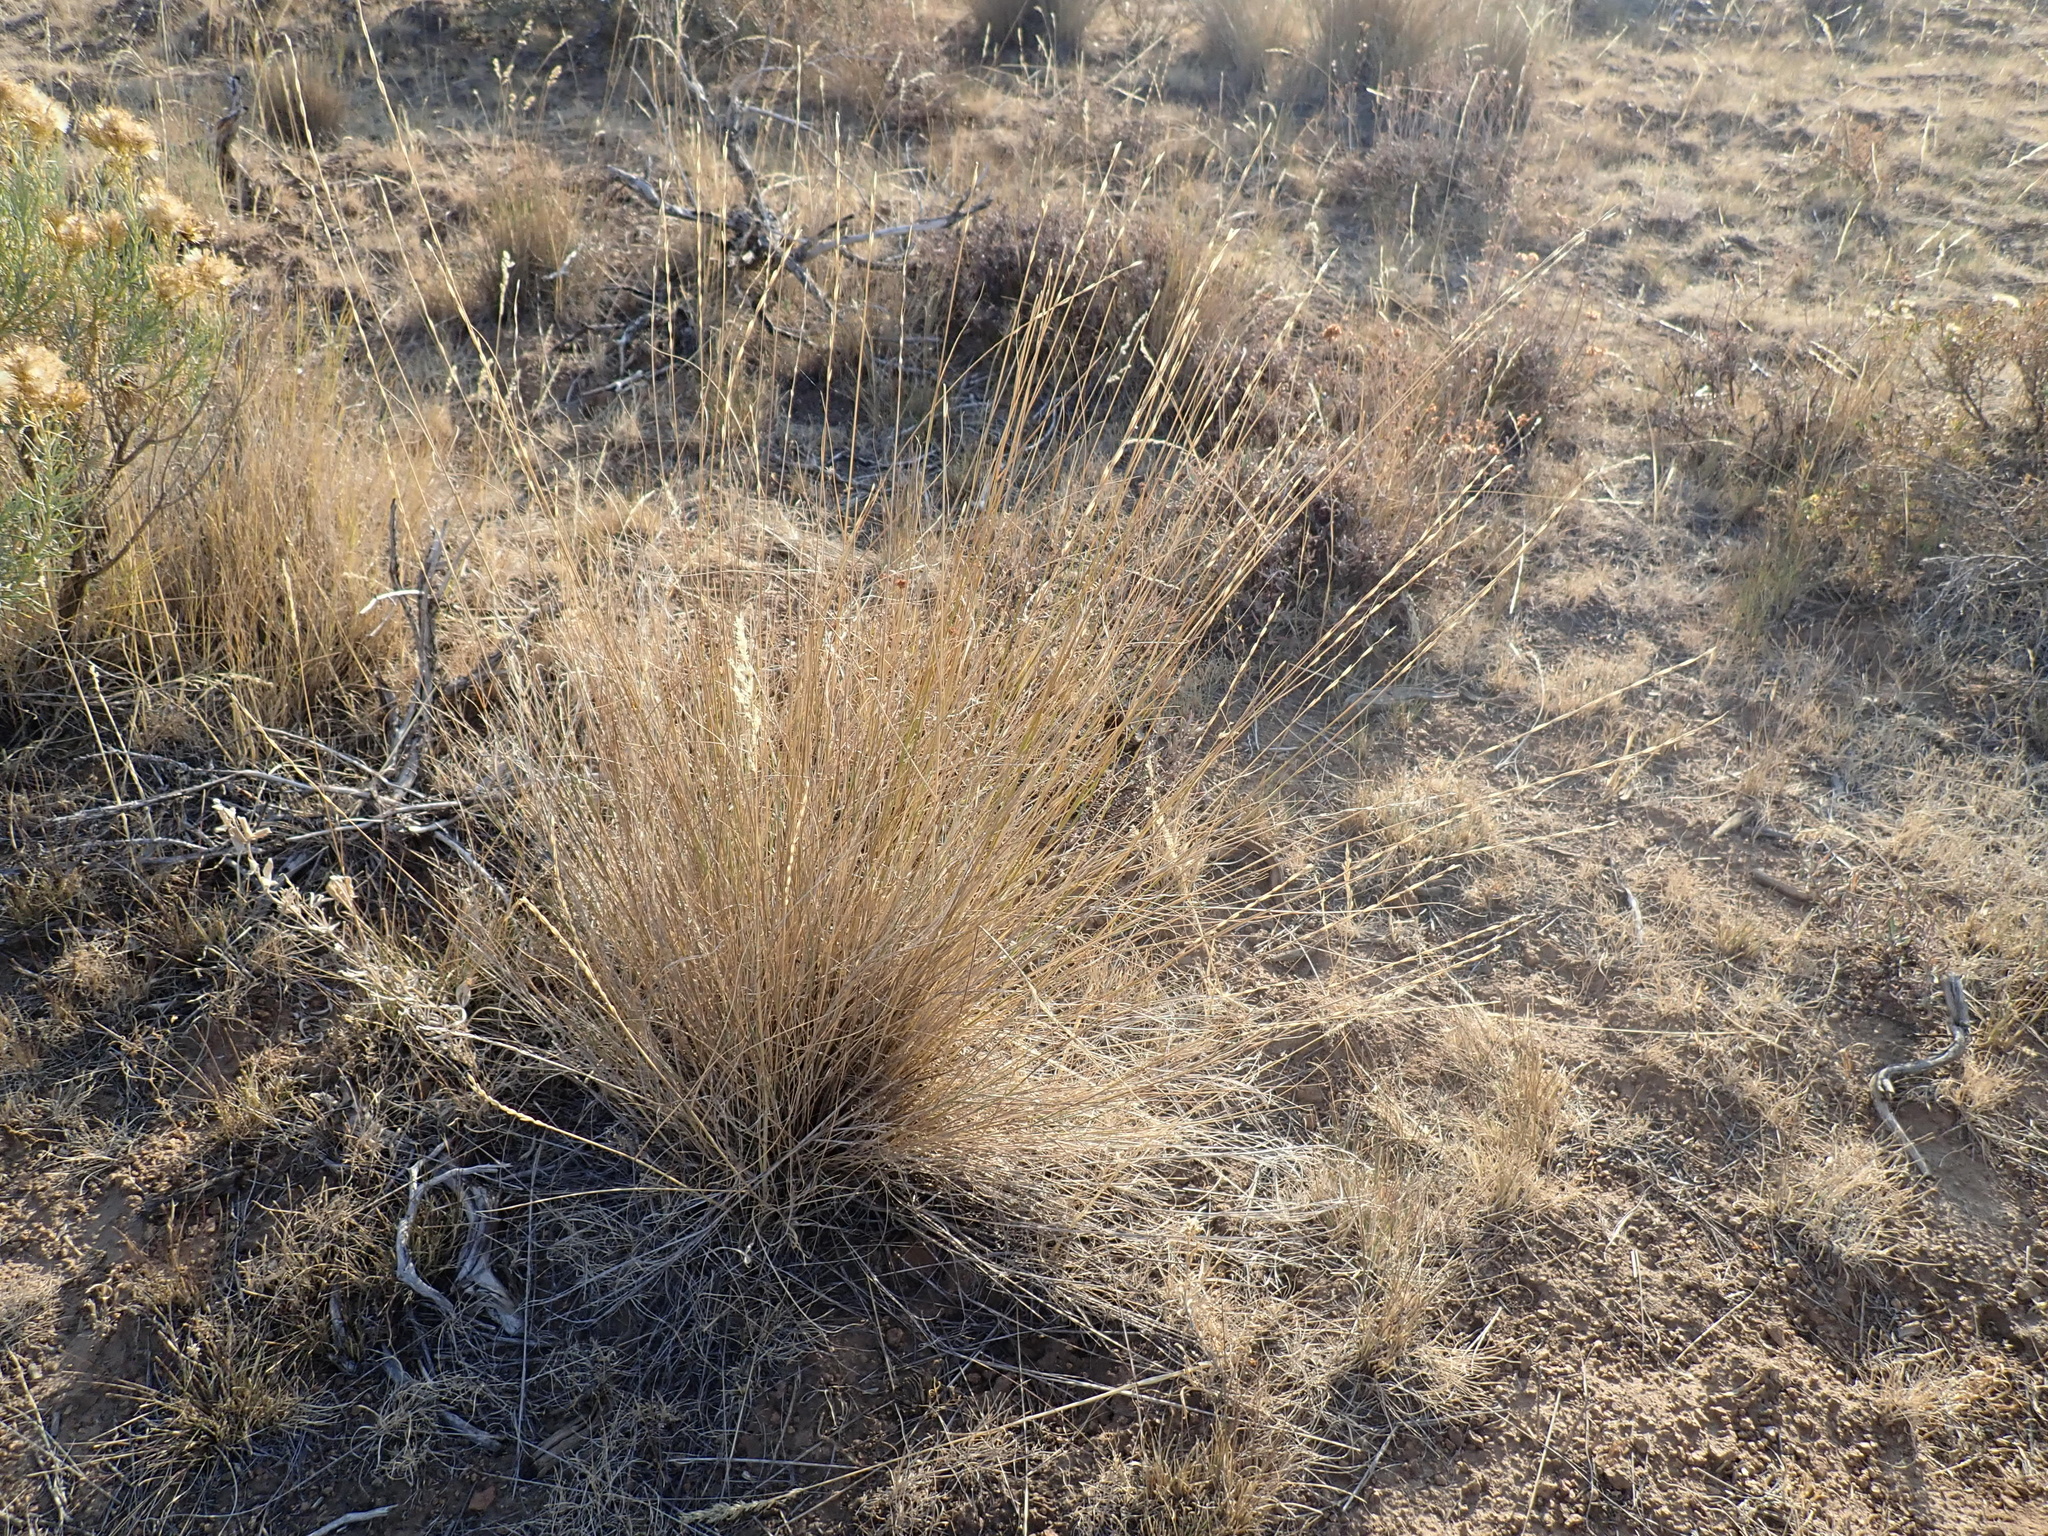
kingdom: Plantae
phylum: Tracheophyta
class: Liliopsida
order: Poales
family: Poaceae
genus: Pseudoroegneria
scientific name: Pseudoroegneria spicata
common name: Bluebunch wheatgrass
